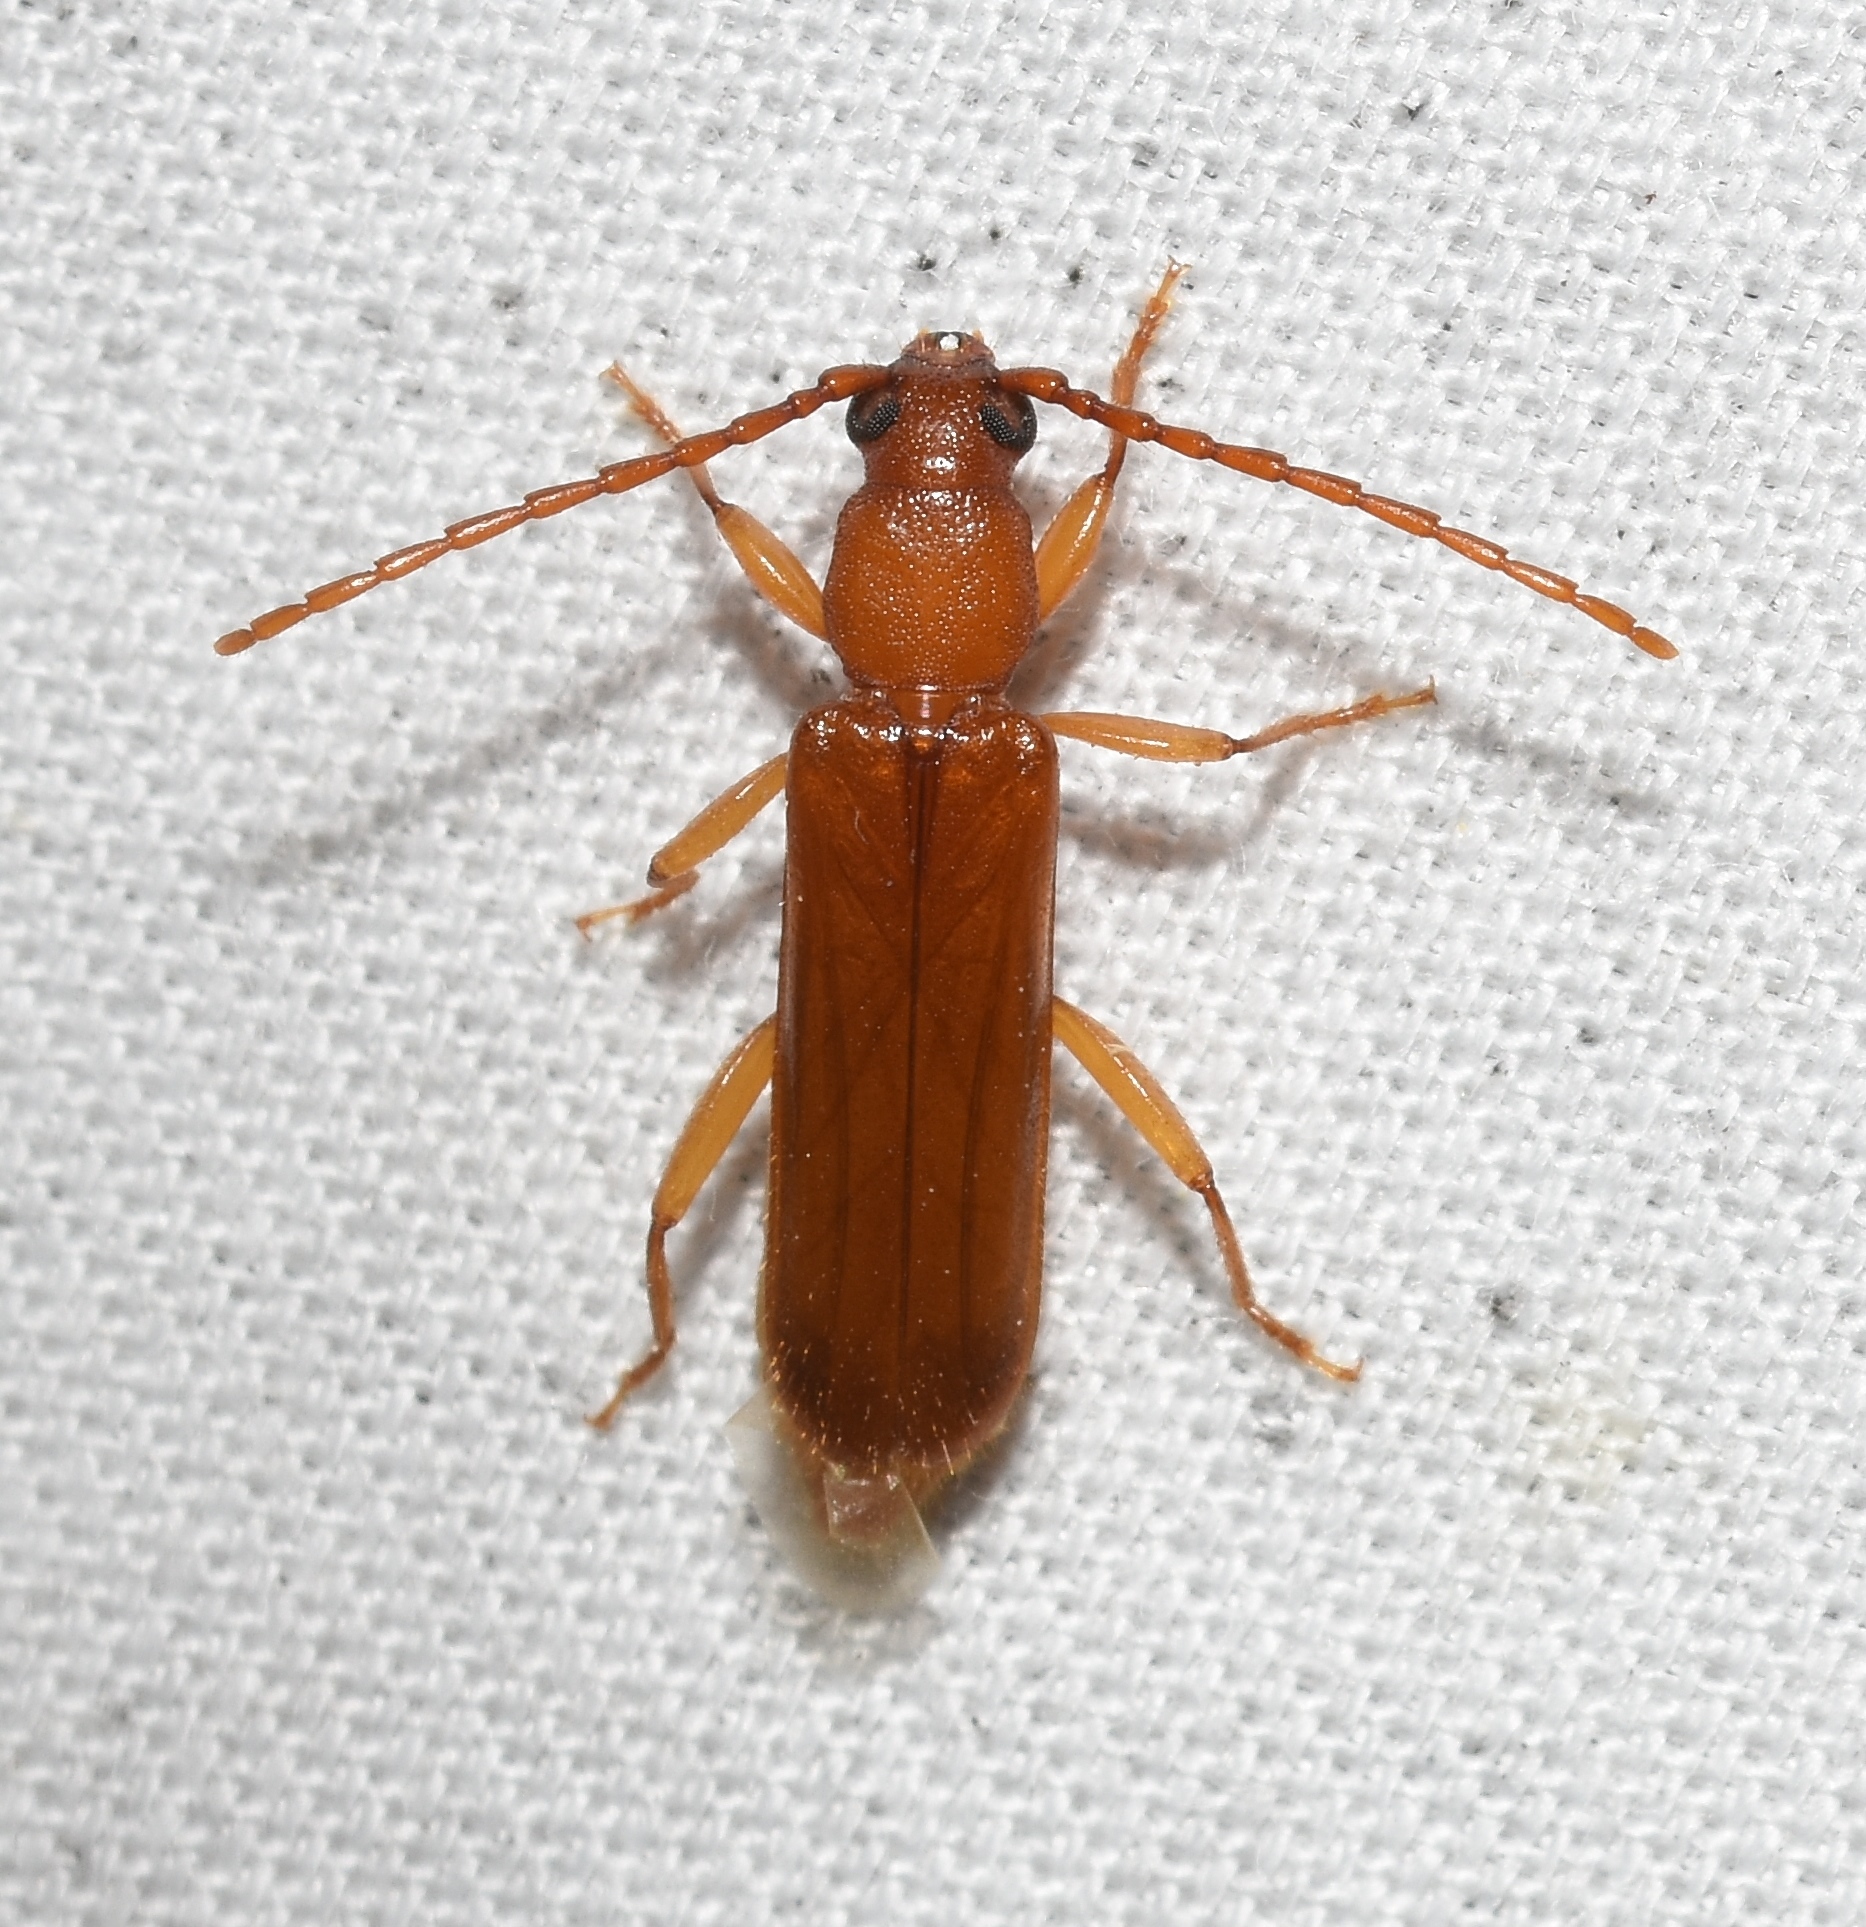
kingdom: Animalia
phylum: Arthropoda
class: Insecta
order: Coleoptera
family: Cerambycidae
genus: Smodicum
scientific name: Smodicum cucujiforme
